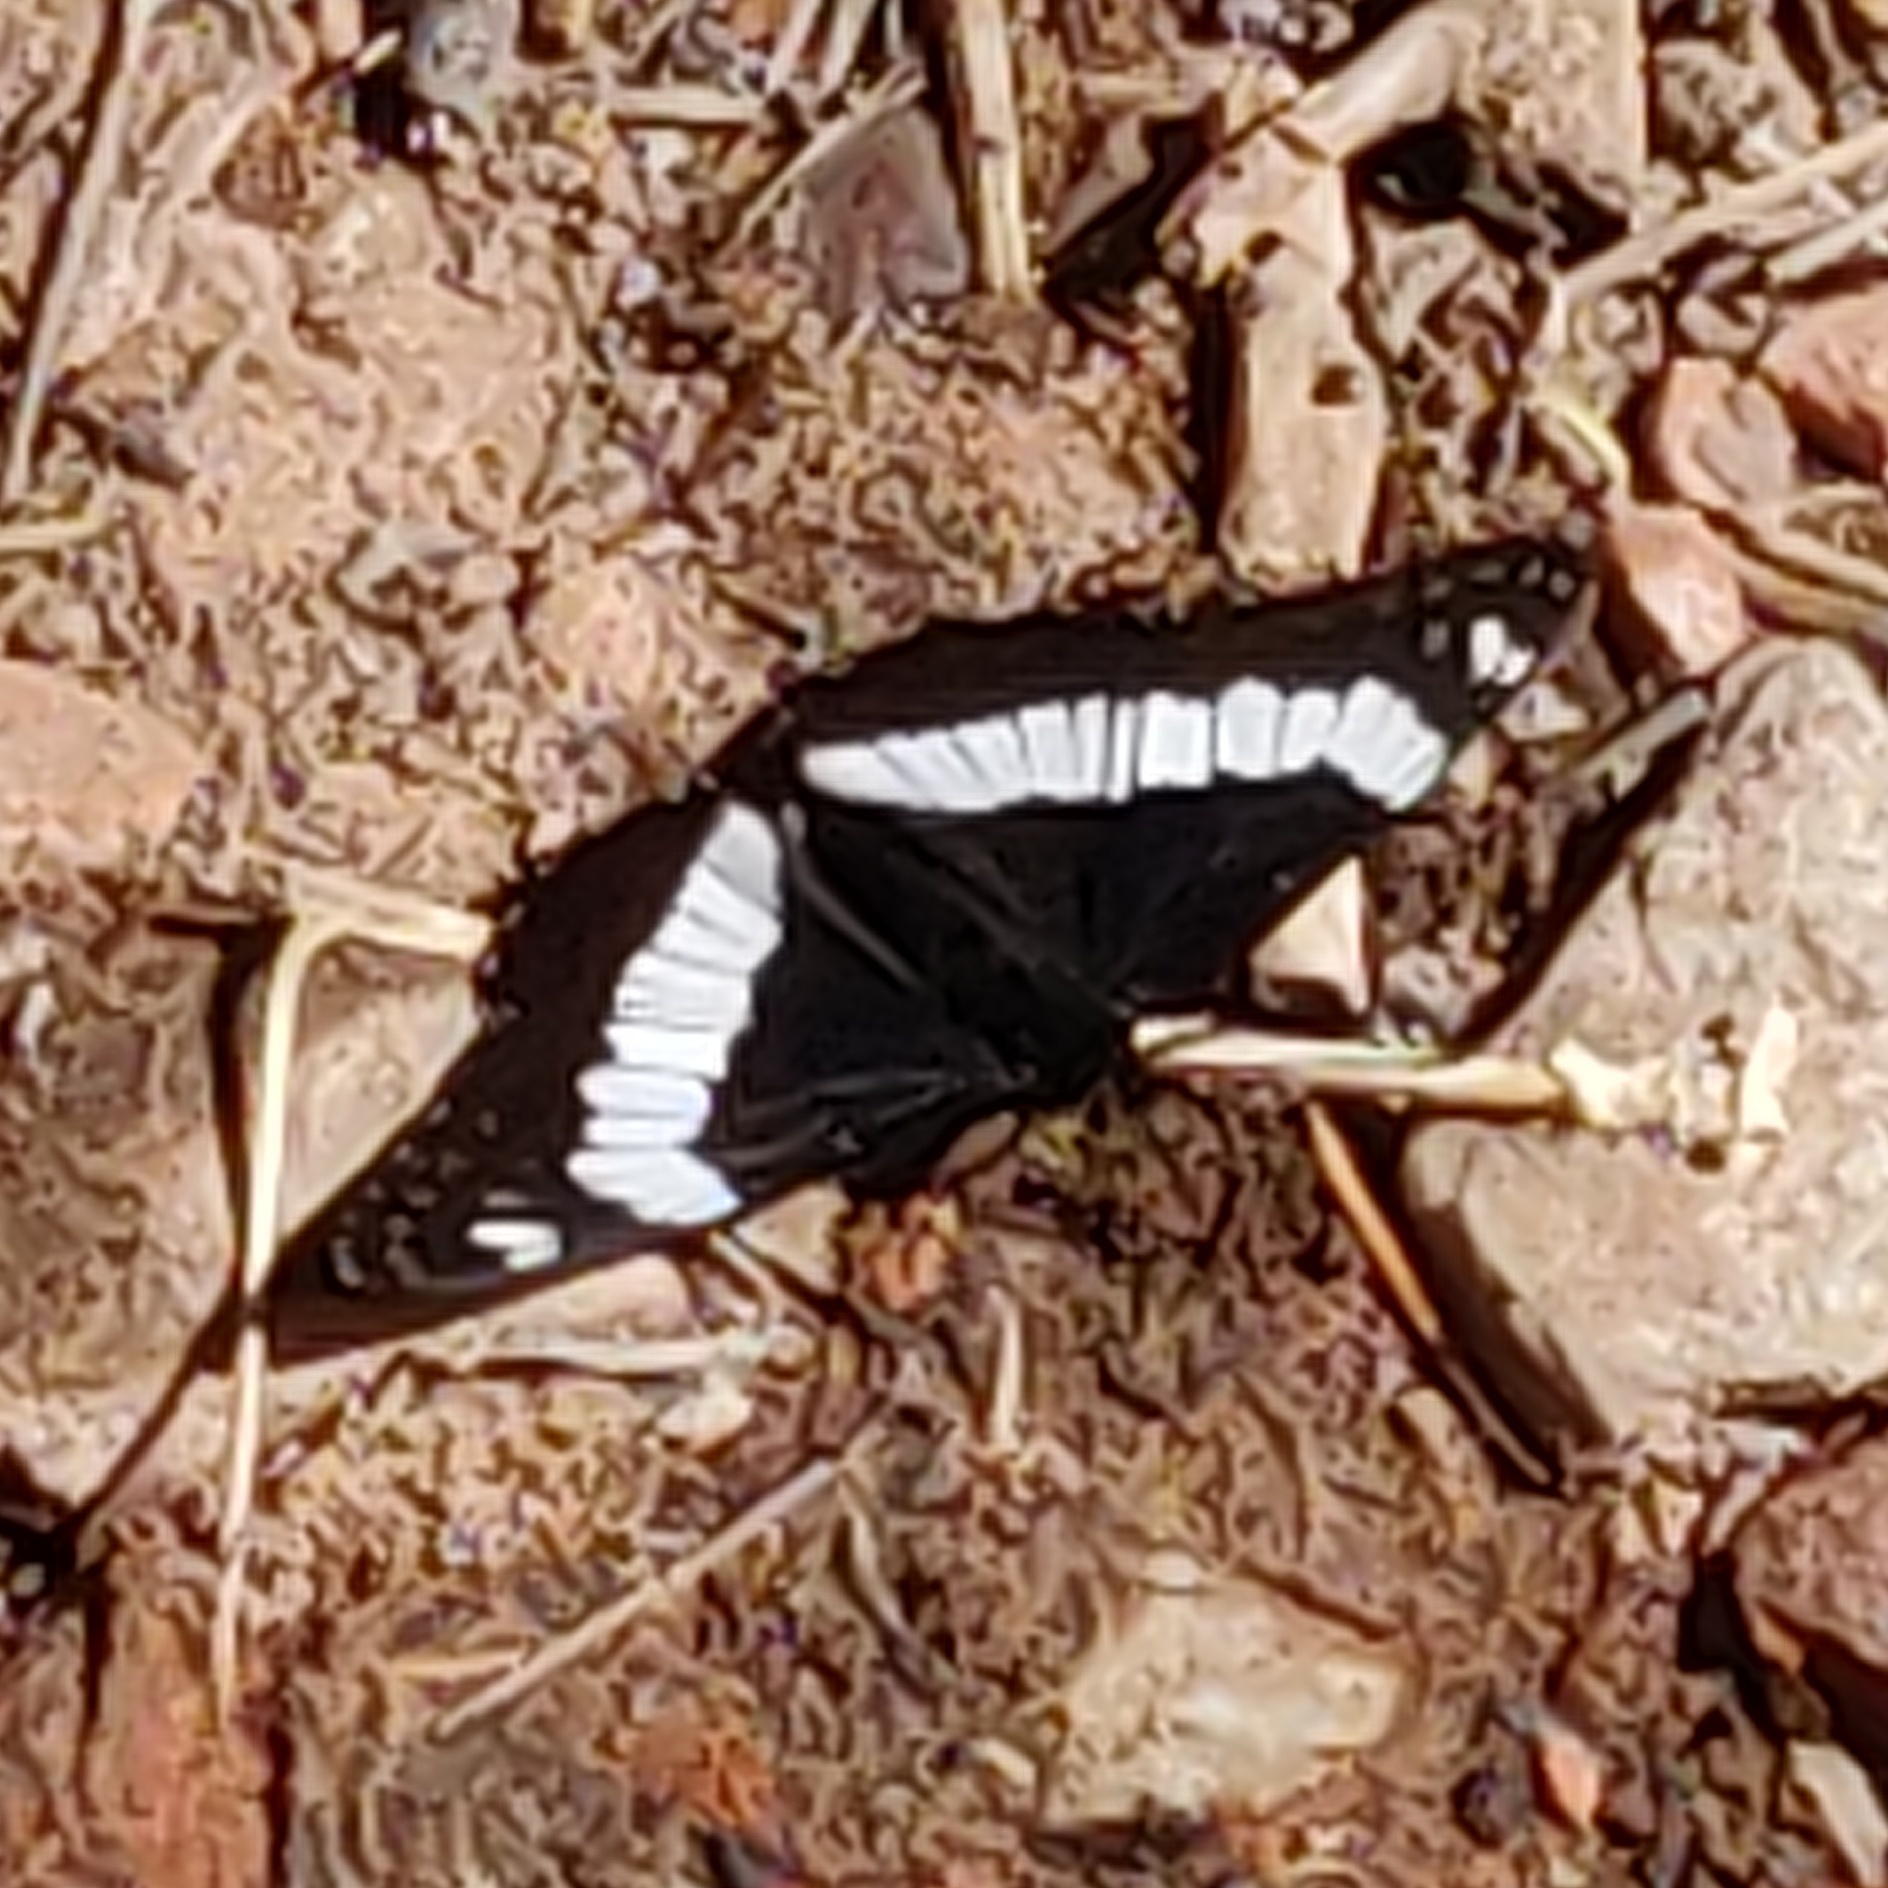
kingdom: Animalia
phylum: Arthropoda
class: Insecta
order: Lepidoptera
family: Nymphalidae
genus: Limenitis
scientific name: Limenitis weidemeyerii
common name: Weidemeyer's admiral
